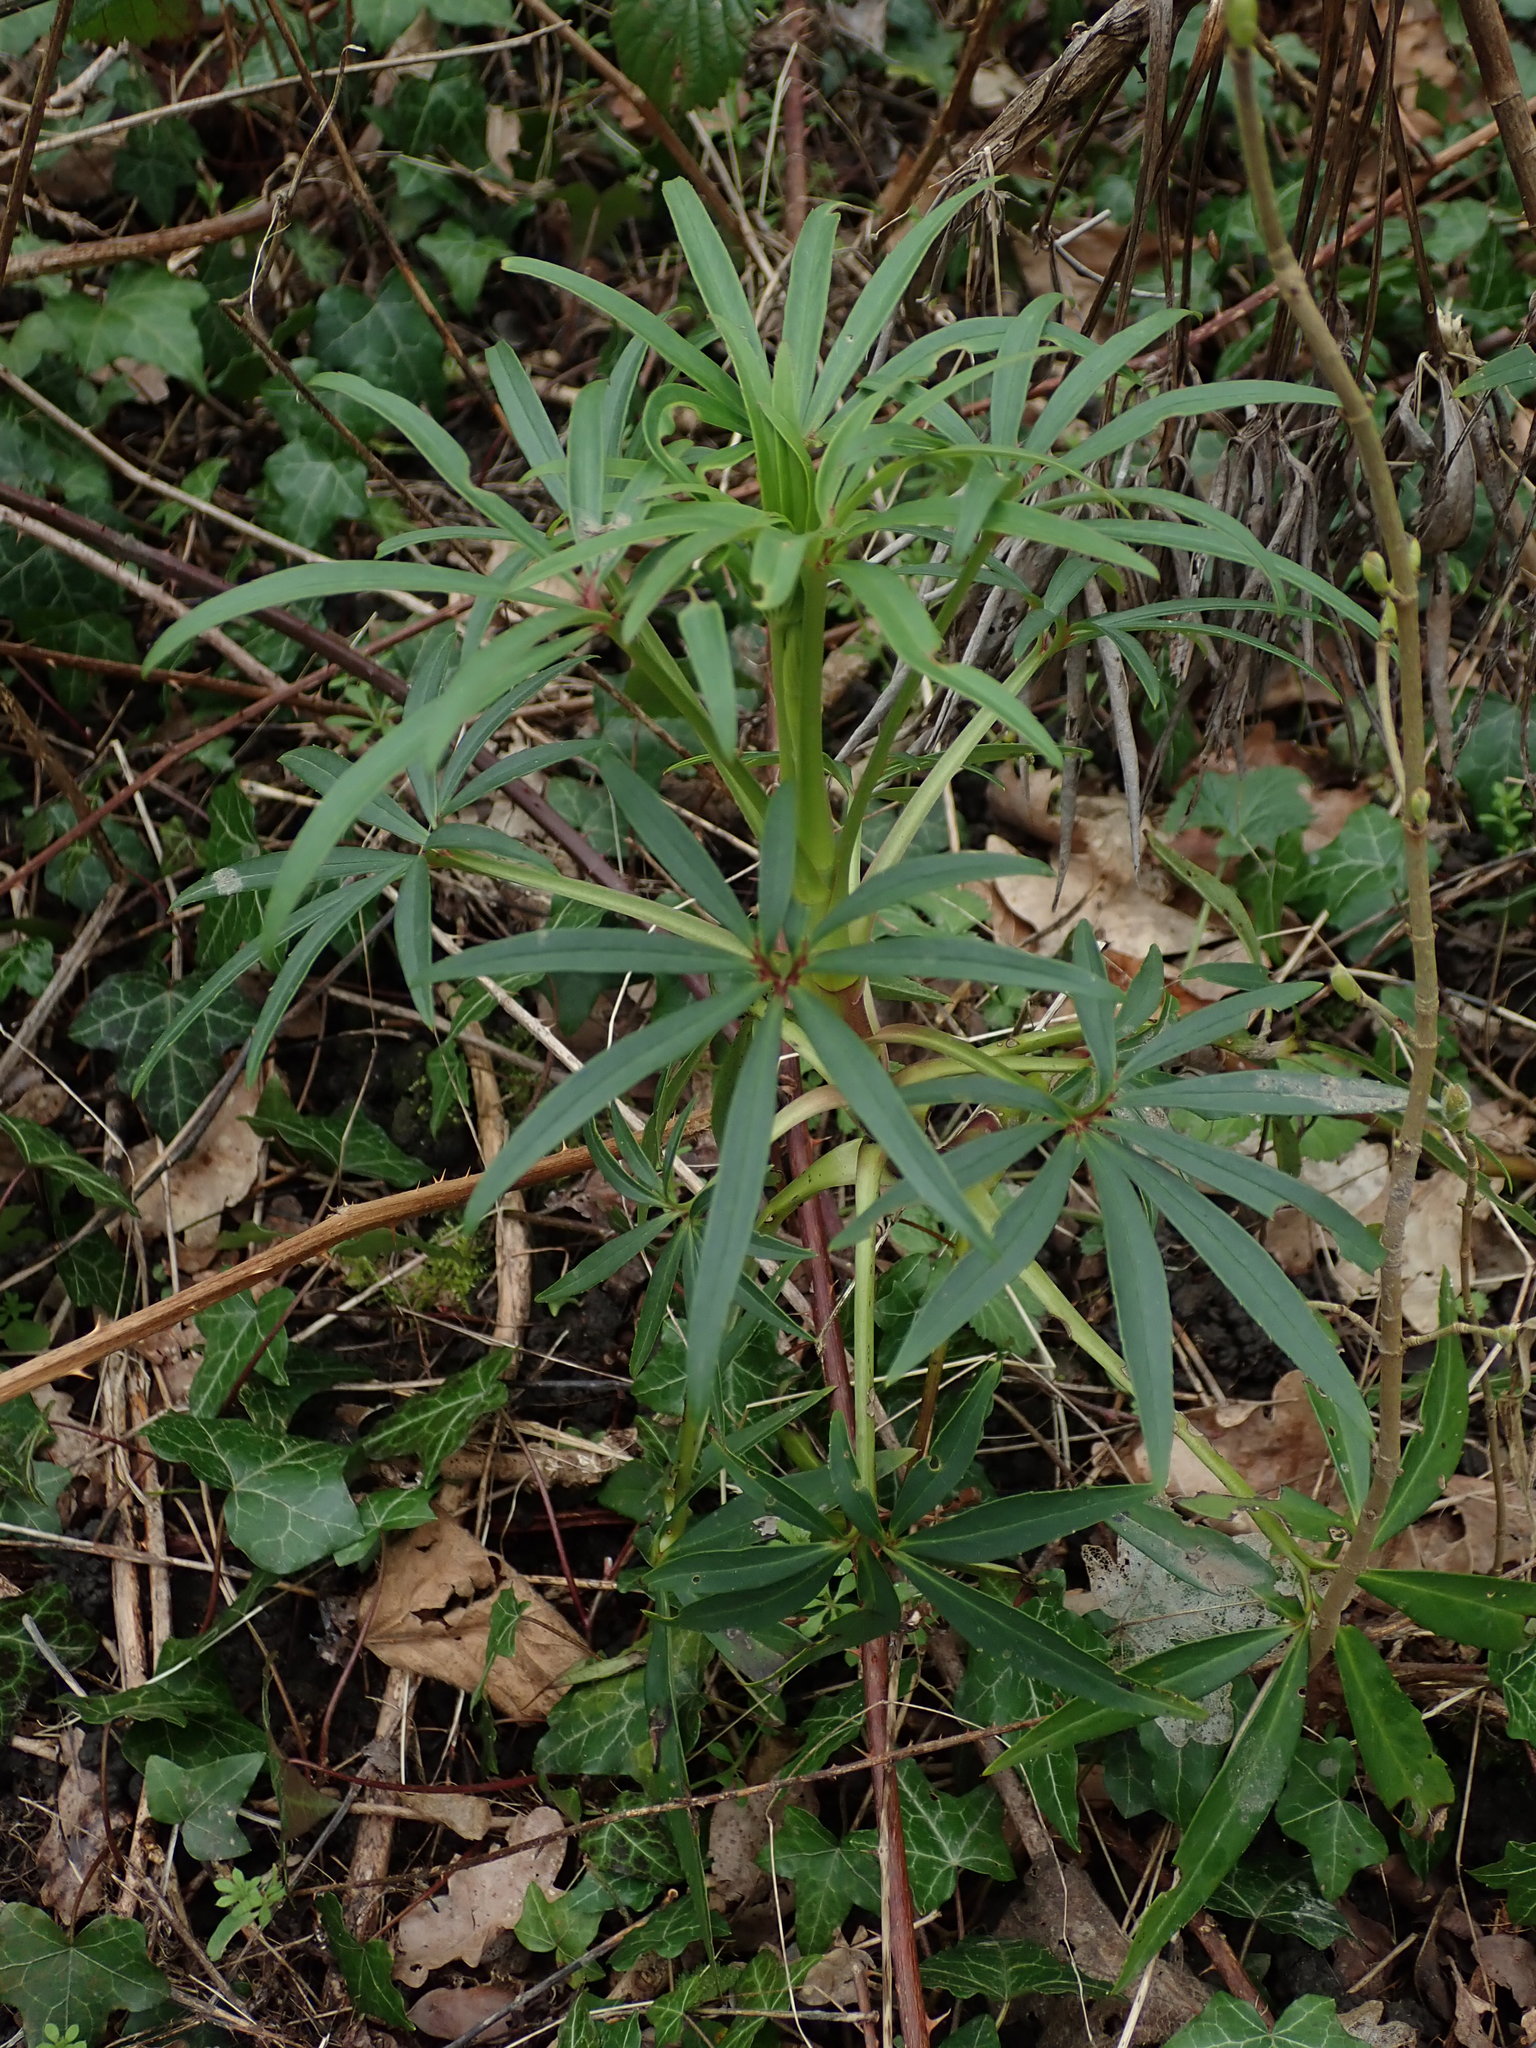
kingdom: Plantae
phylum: Tracheophyta
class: Magnoliopsida
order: Ranunculales
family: Ranunculaceae
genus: Helleborus
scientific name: Helleborus foetidus
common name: Stinking hellebore
